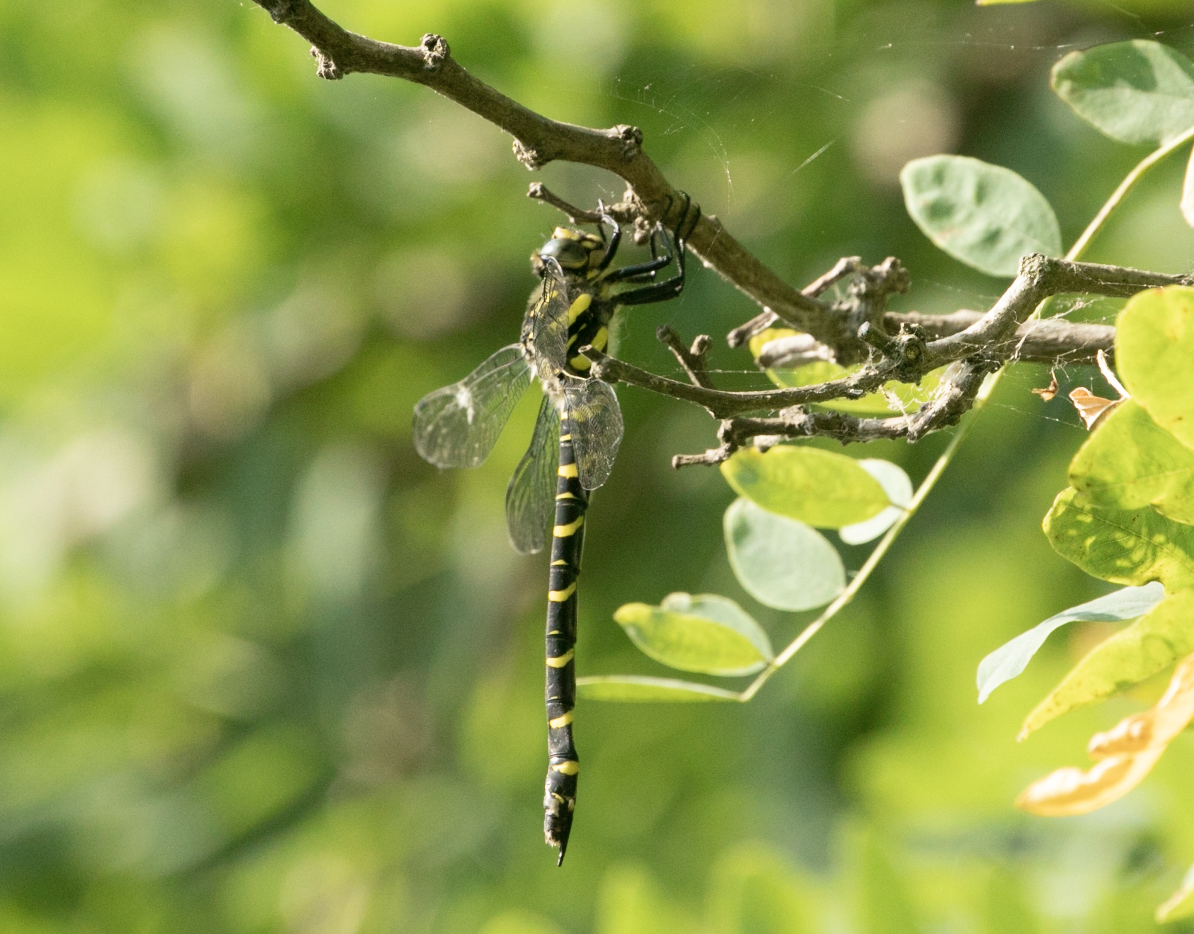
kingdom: Animalia
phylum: Arthropoda
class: Insecta
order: Odonata
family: Cordulegastridae
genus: Cordulegaster
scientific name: Cordulegaster boltonii
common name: Golden-ringed dragonfly
